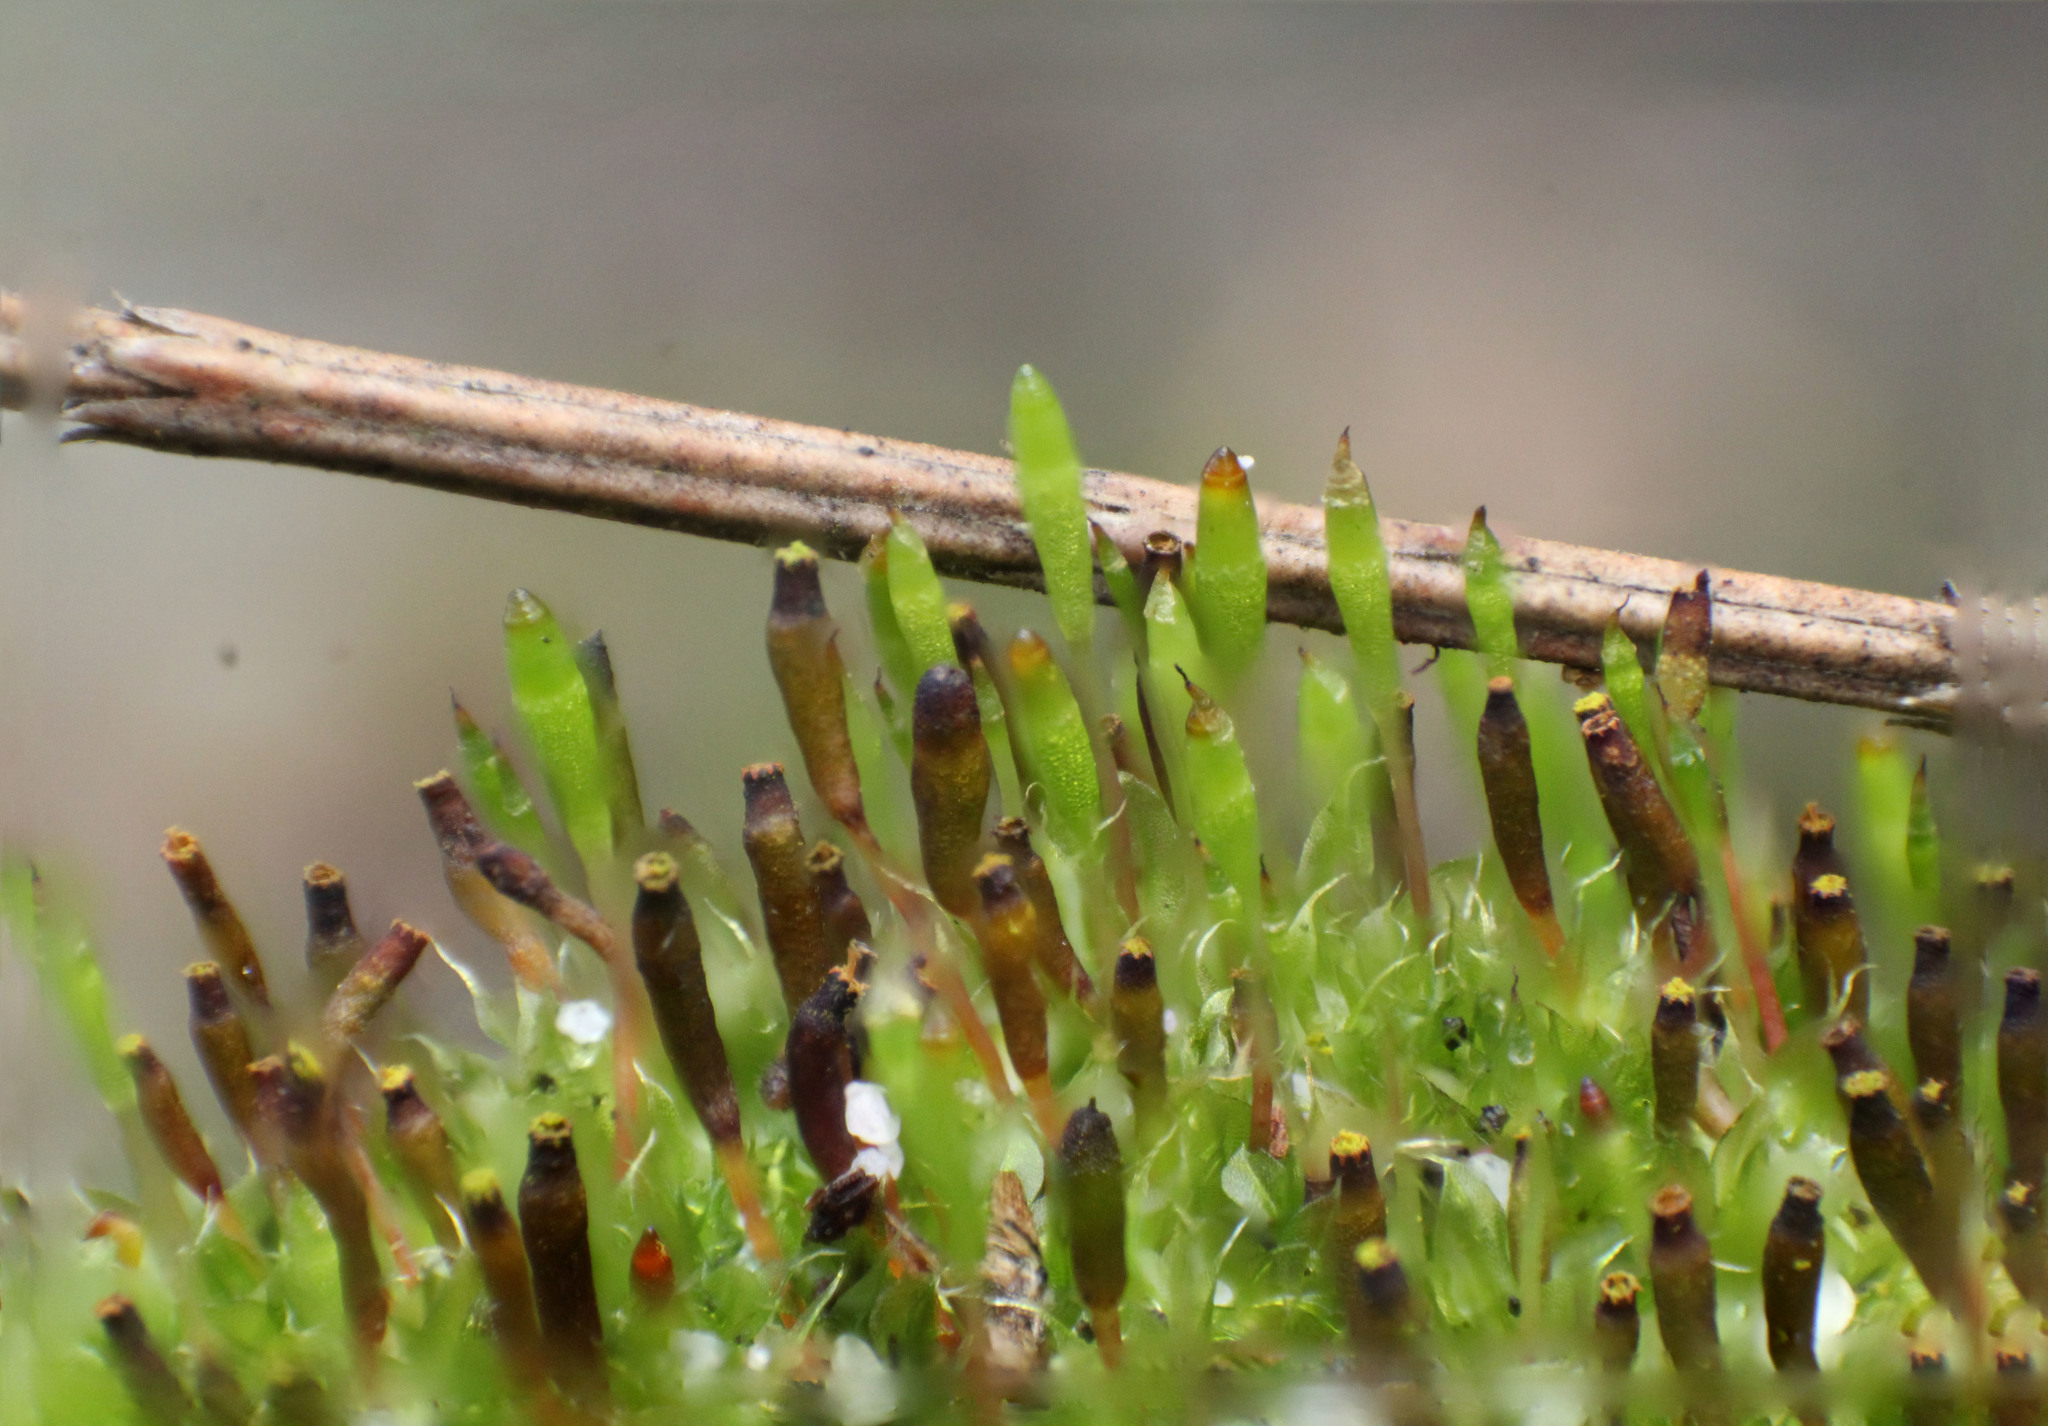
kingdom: Plantae
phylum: Bryophyta
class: Bryopsida
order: Splachnales
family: Splachnaceae
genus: Tayloria
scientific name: Tayloria octoblephara
